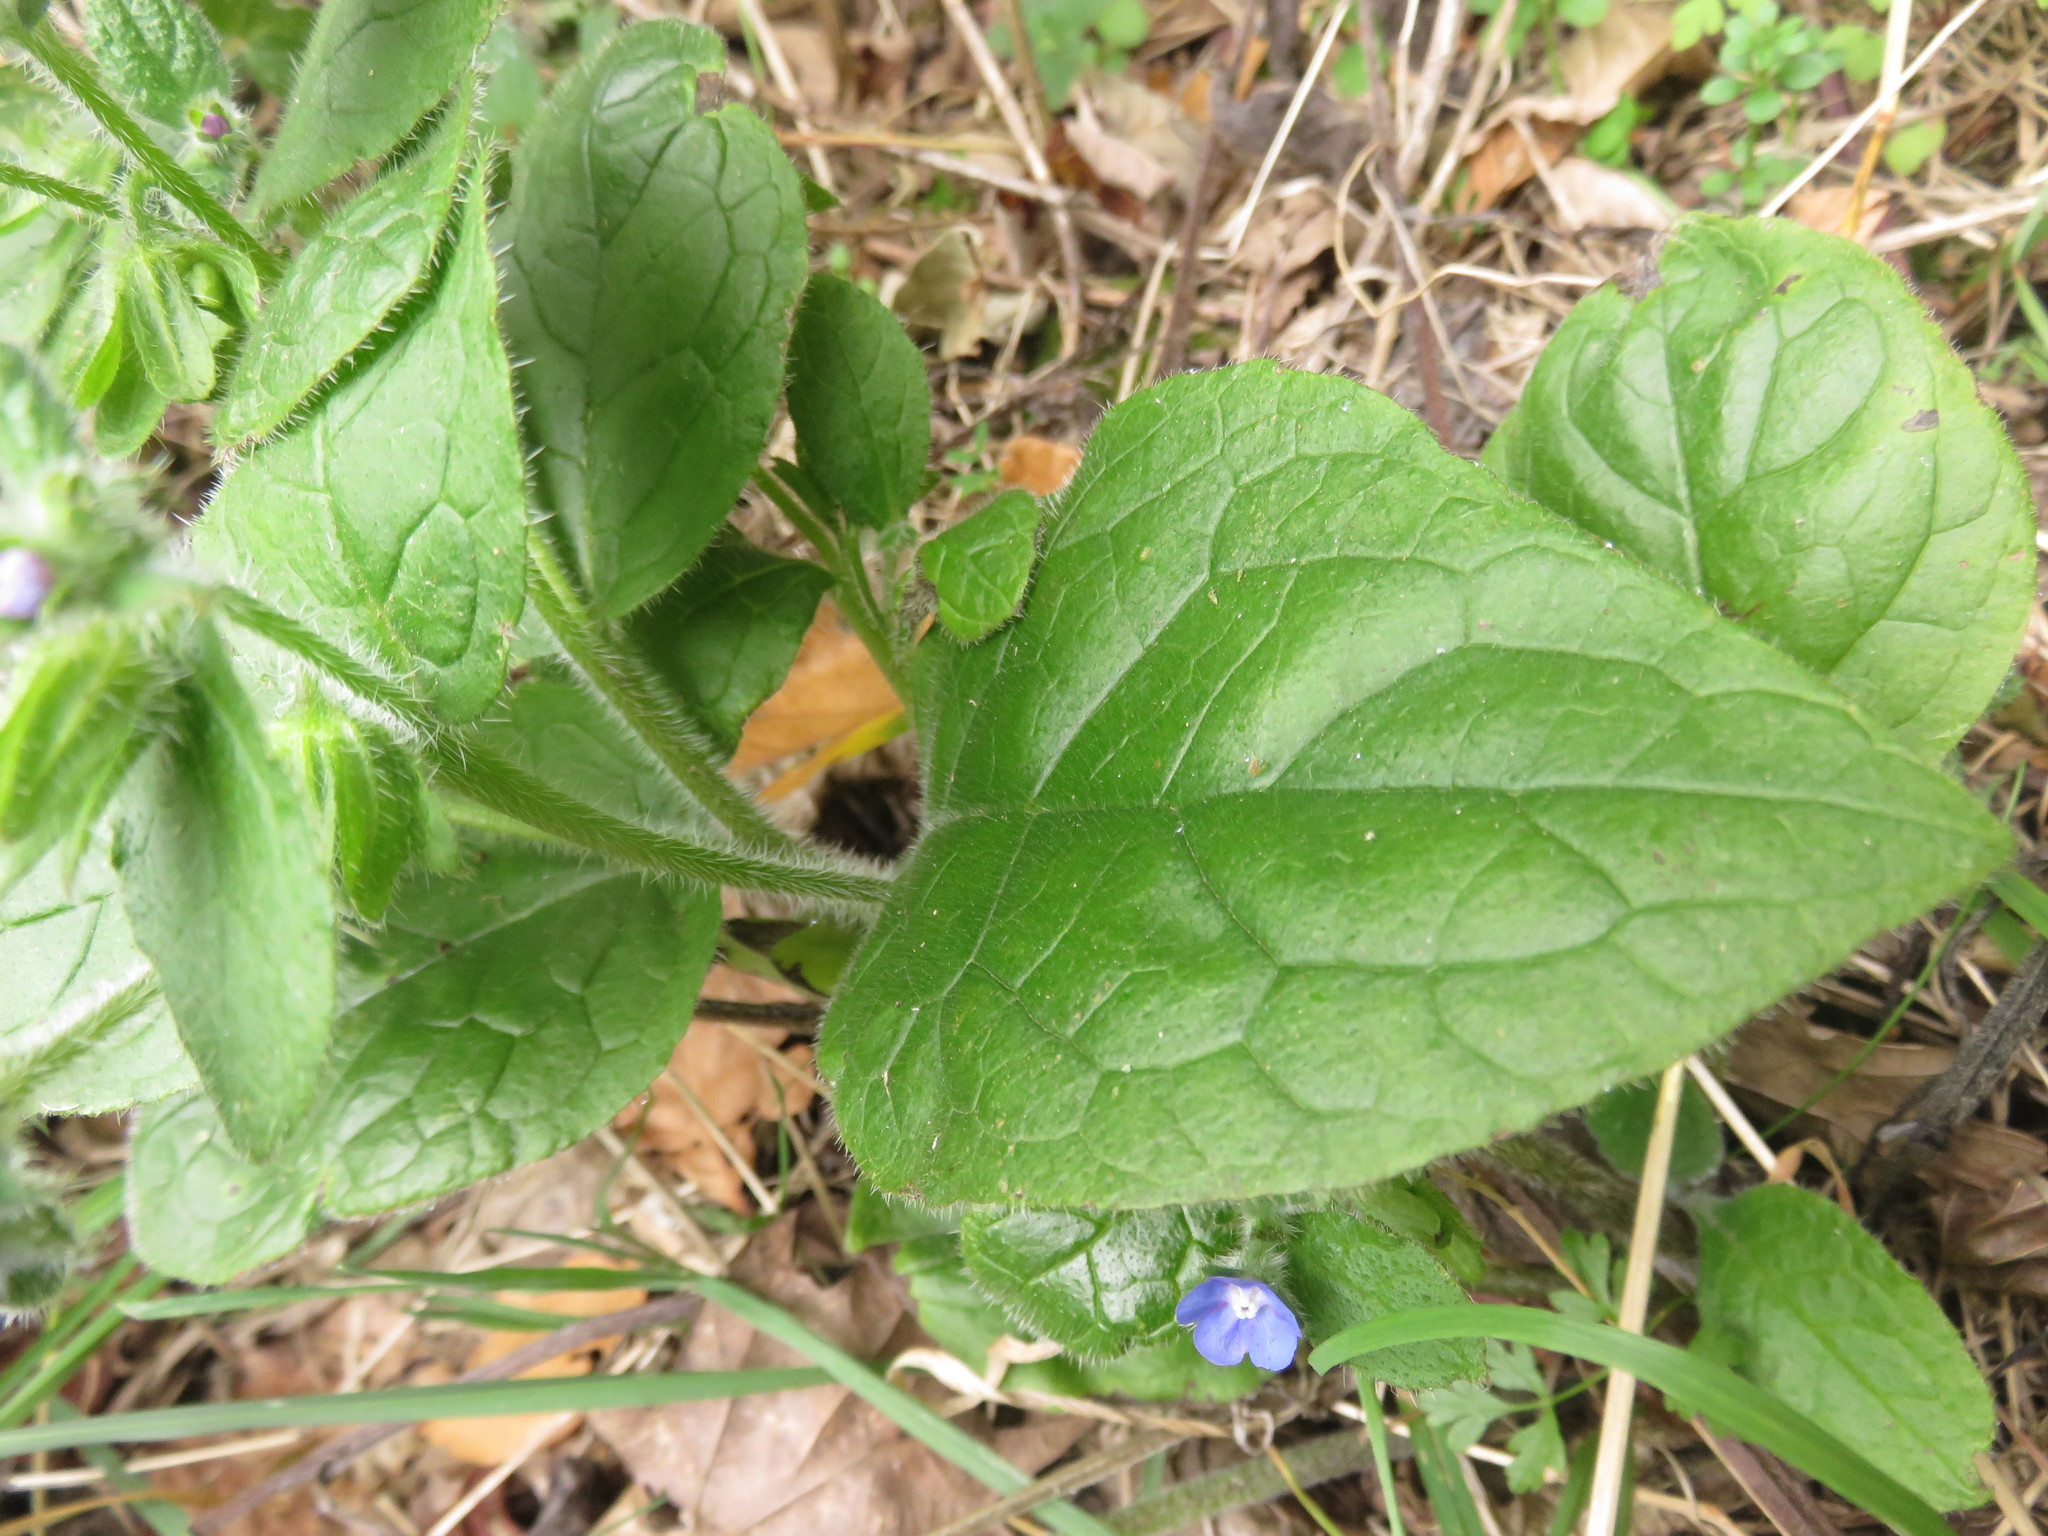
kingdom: Plantae
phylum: Tracheophyta
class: Magnoliopsida
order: Boraginales
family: Boraginaceae
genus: Pentaglottis
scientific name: Pentaglottis sempervirens
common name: Green alkanet
